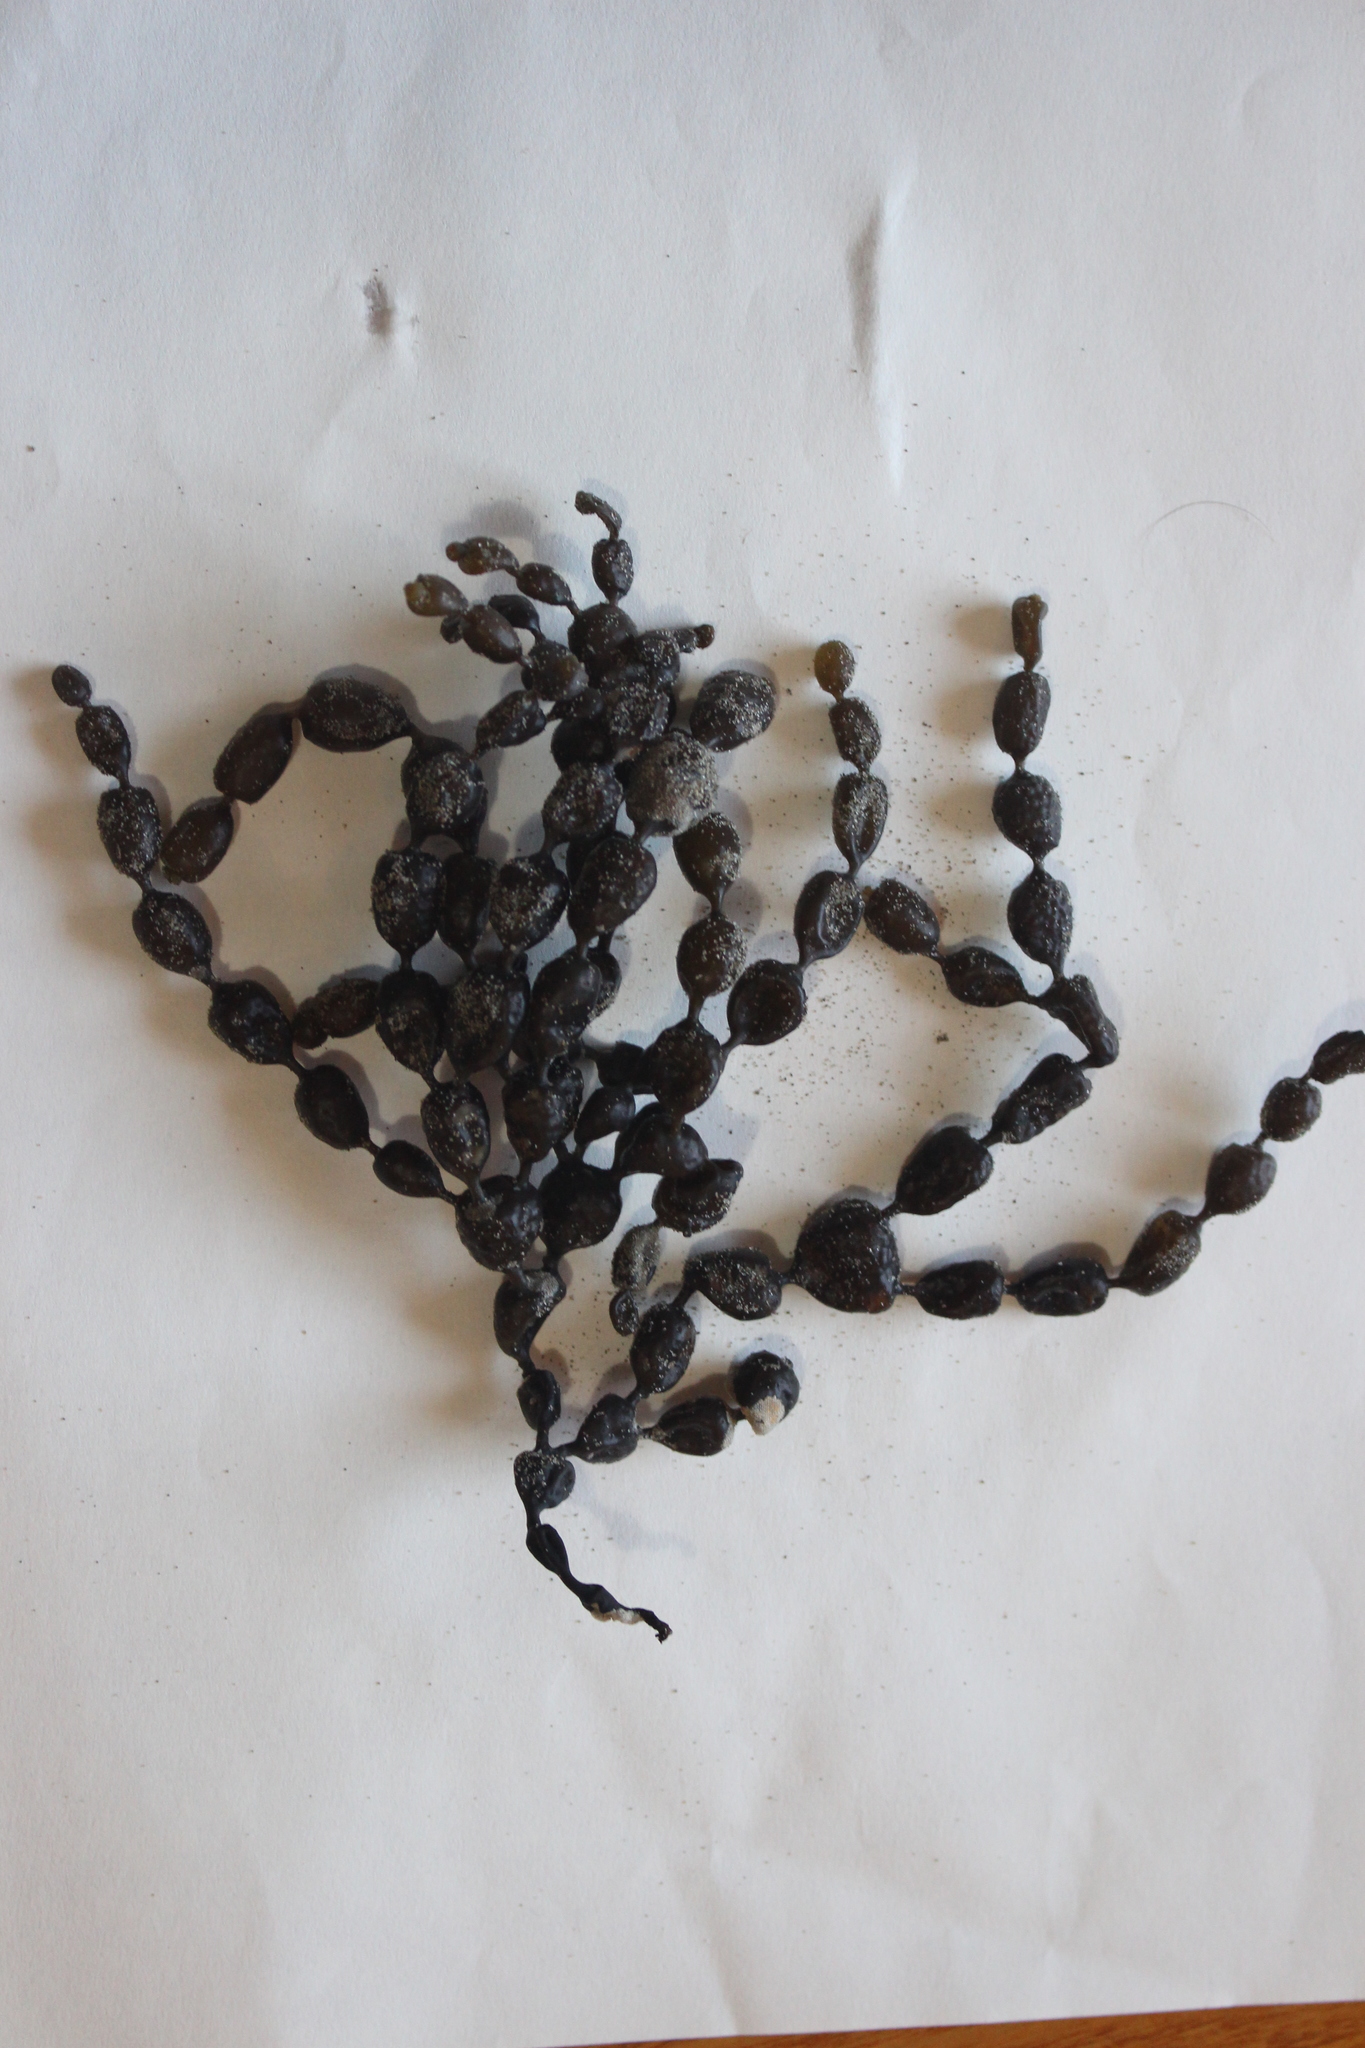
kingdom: Chromista
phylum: Ochrophyta
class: Phaeophyceae
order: Fucales
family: Hormosiraceae
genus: Hormosira
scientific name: Hormosira banksii
